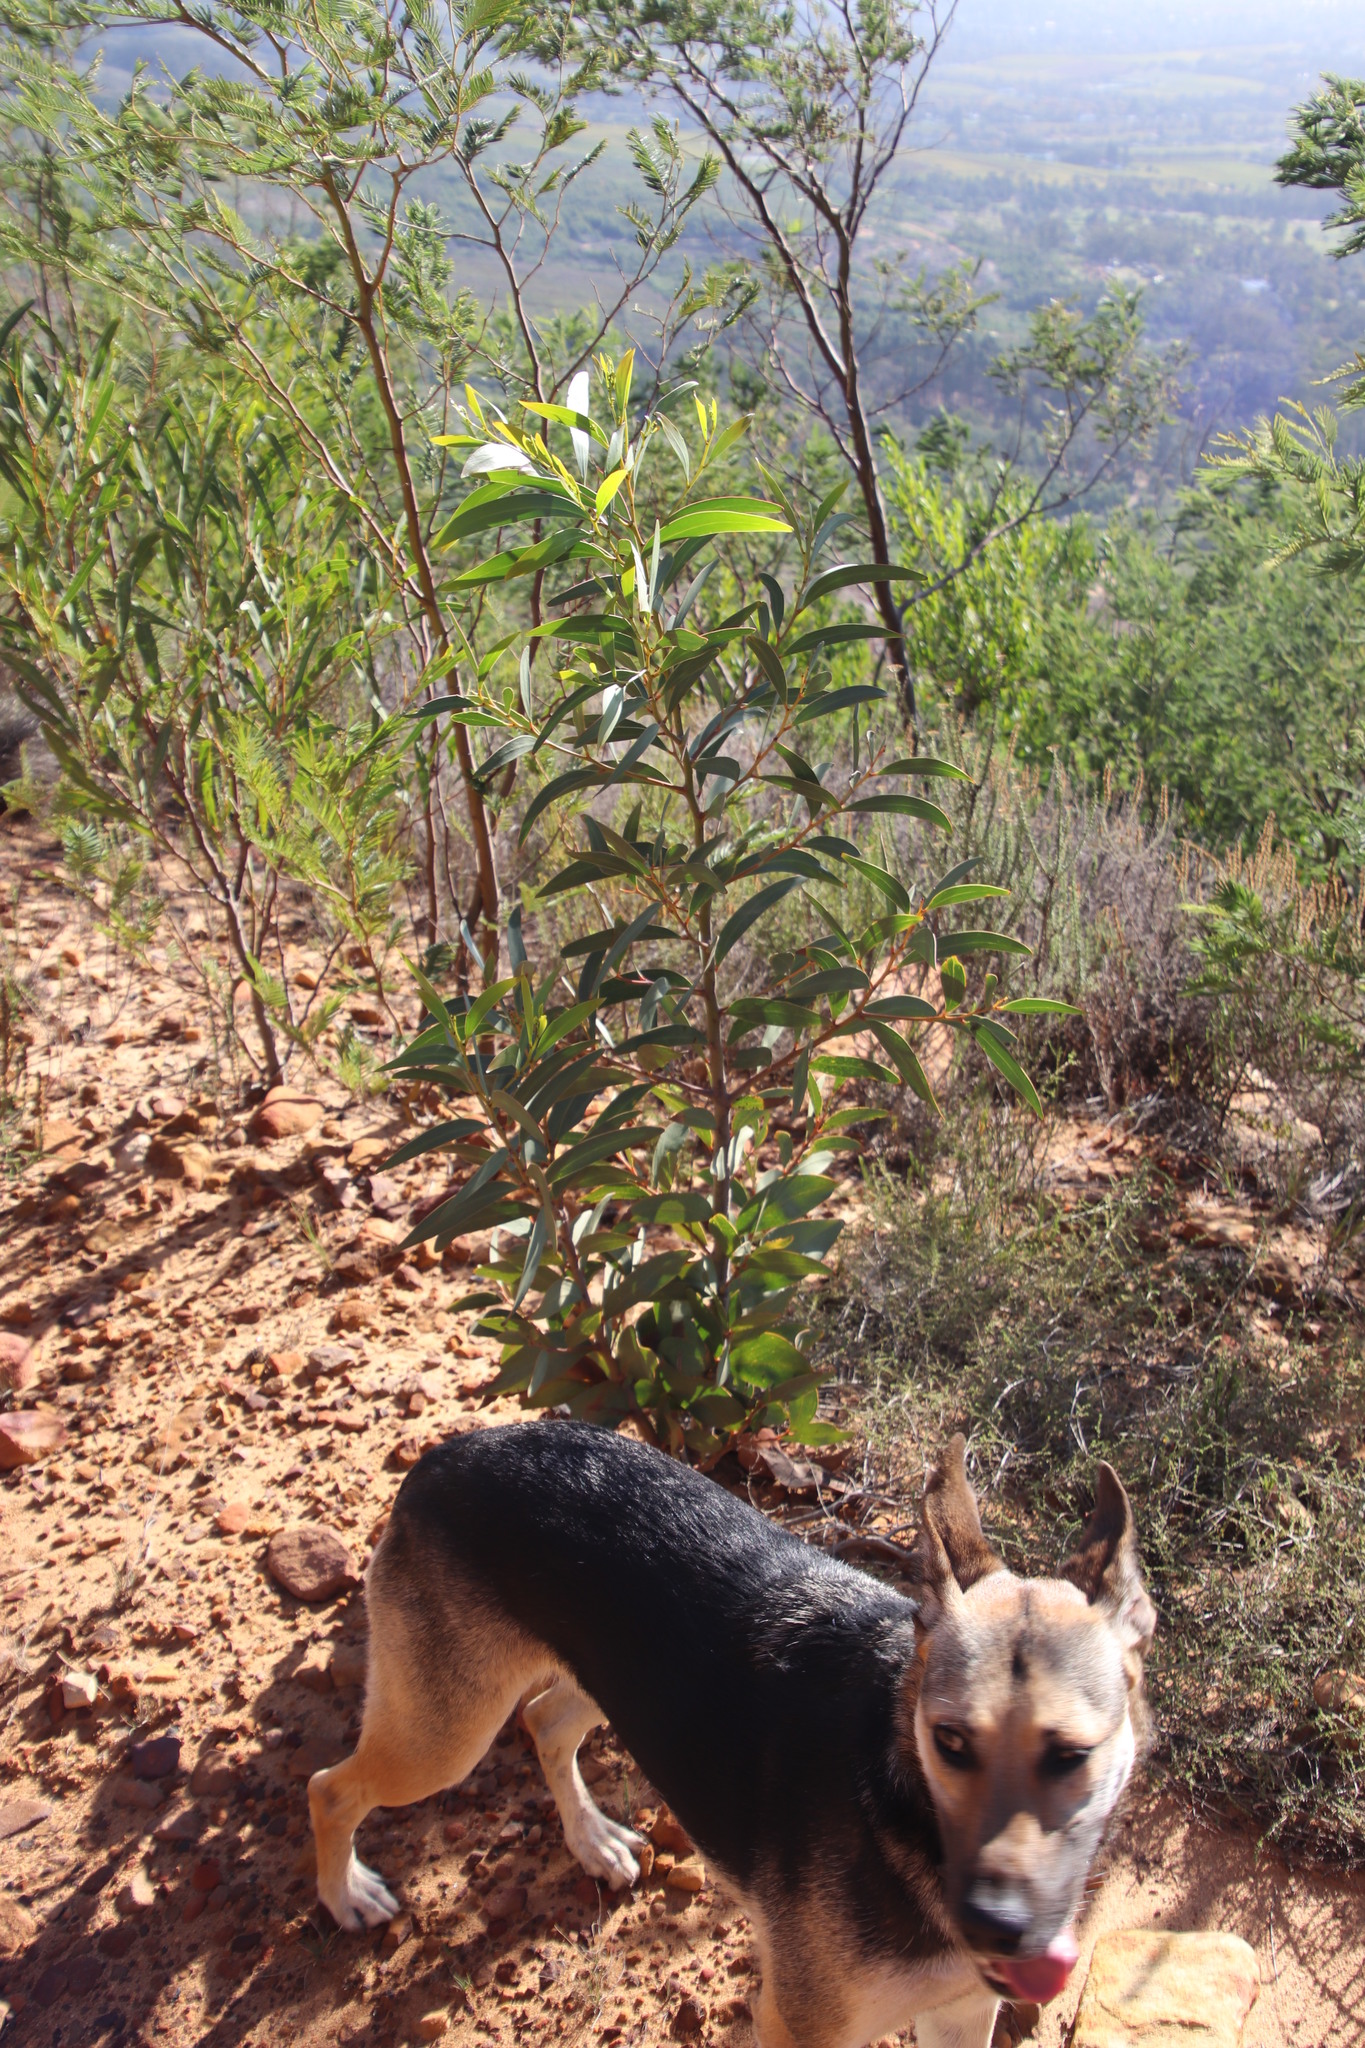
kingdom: Plantae
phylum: Tracheophyta
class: Magnoliopsida
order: Fabales
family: Fabaceae
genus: Acacia
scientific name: Acacia pycnantha
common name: Golden wattle
